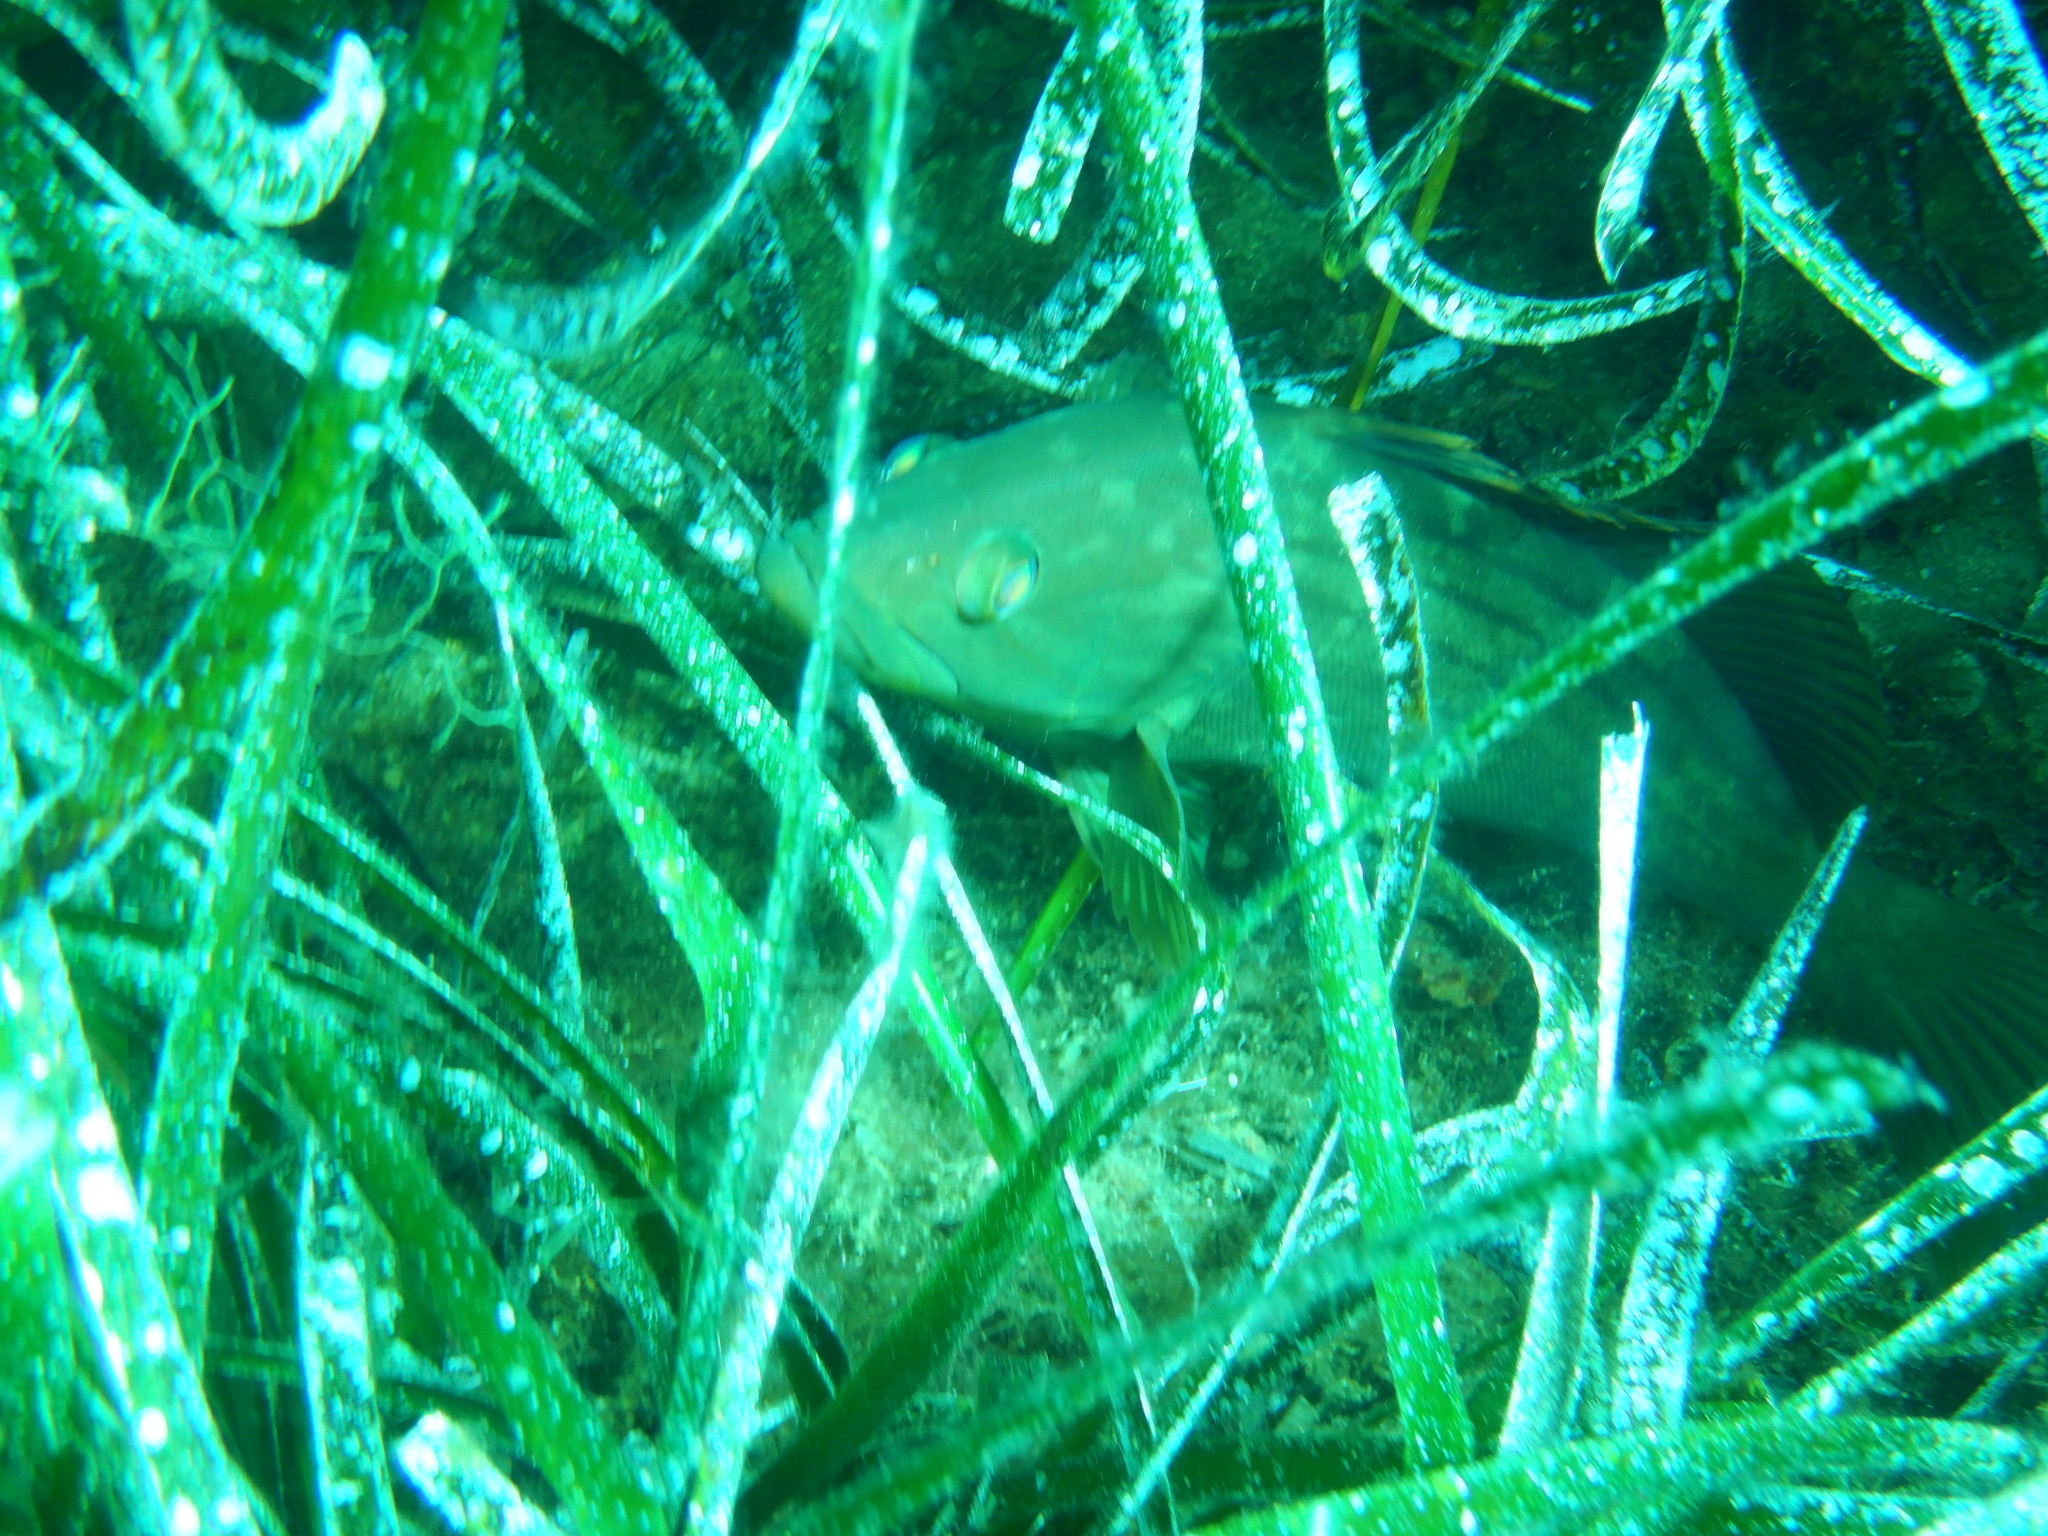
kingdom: Animalia
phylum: Chordata
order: Perciformes
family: Serranidae
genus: Epinephelus
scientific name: Epinephelus costae
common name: Goldblotch grouper
